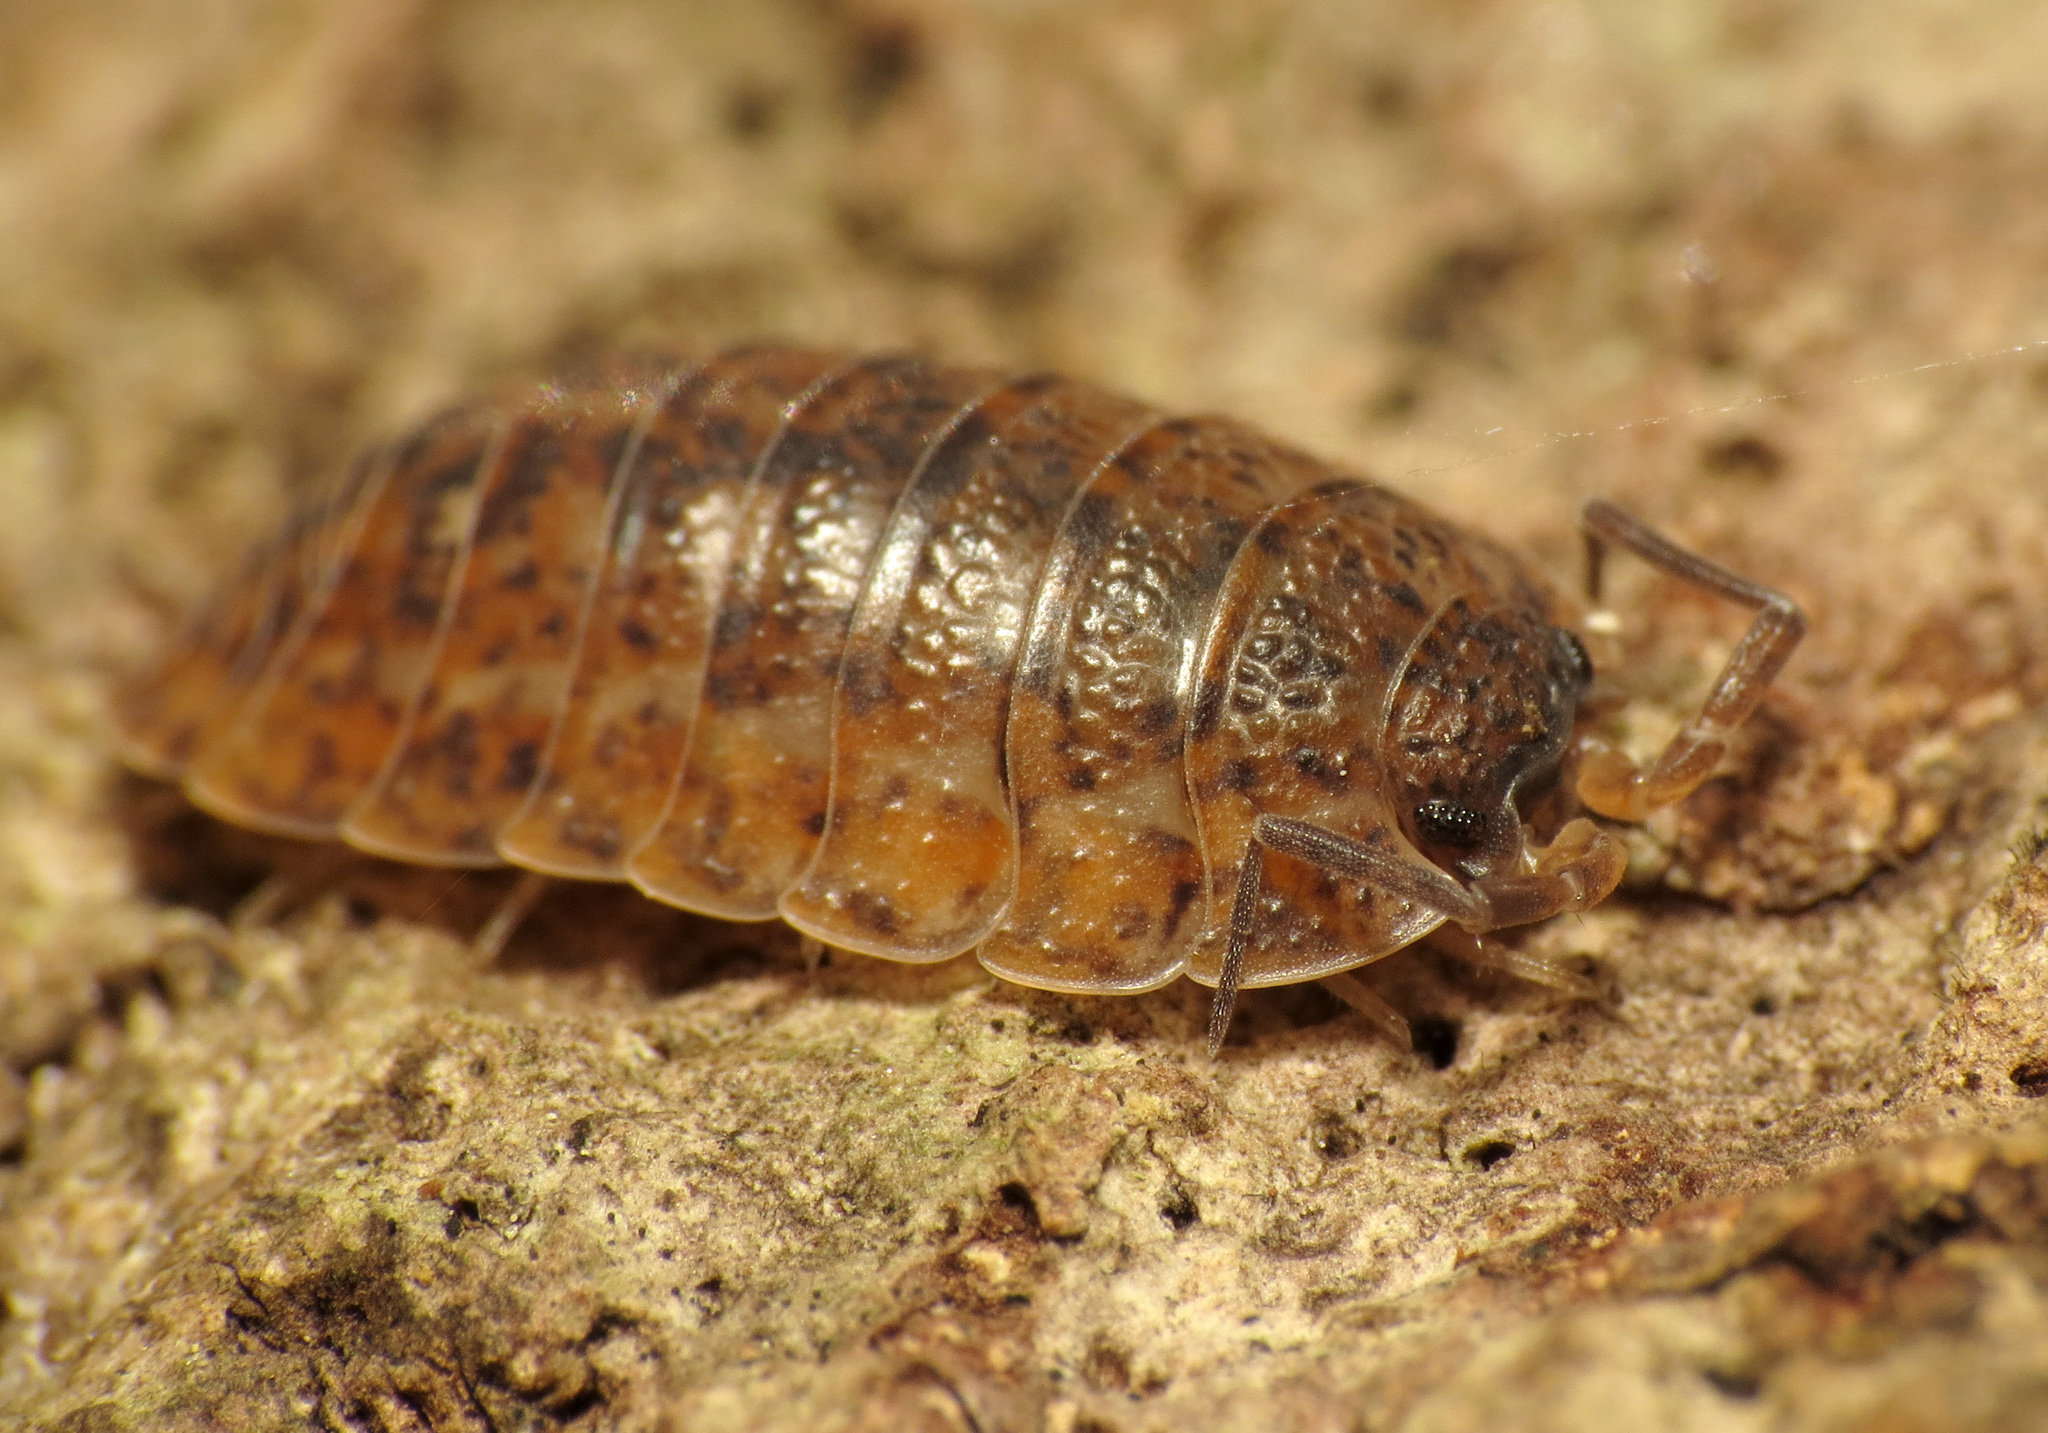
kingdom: Animalia
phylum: Arthropoda
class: Malacostraca
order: Isopoda
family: Trachelipodidae
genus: Trachelipus
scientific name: Trachelipus rathkii
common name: Isopod
